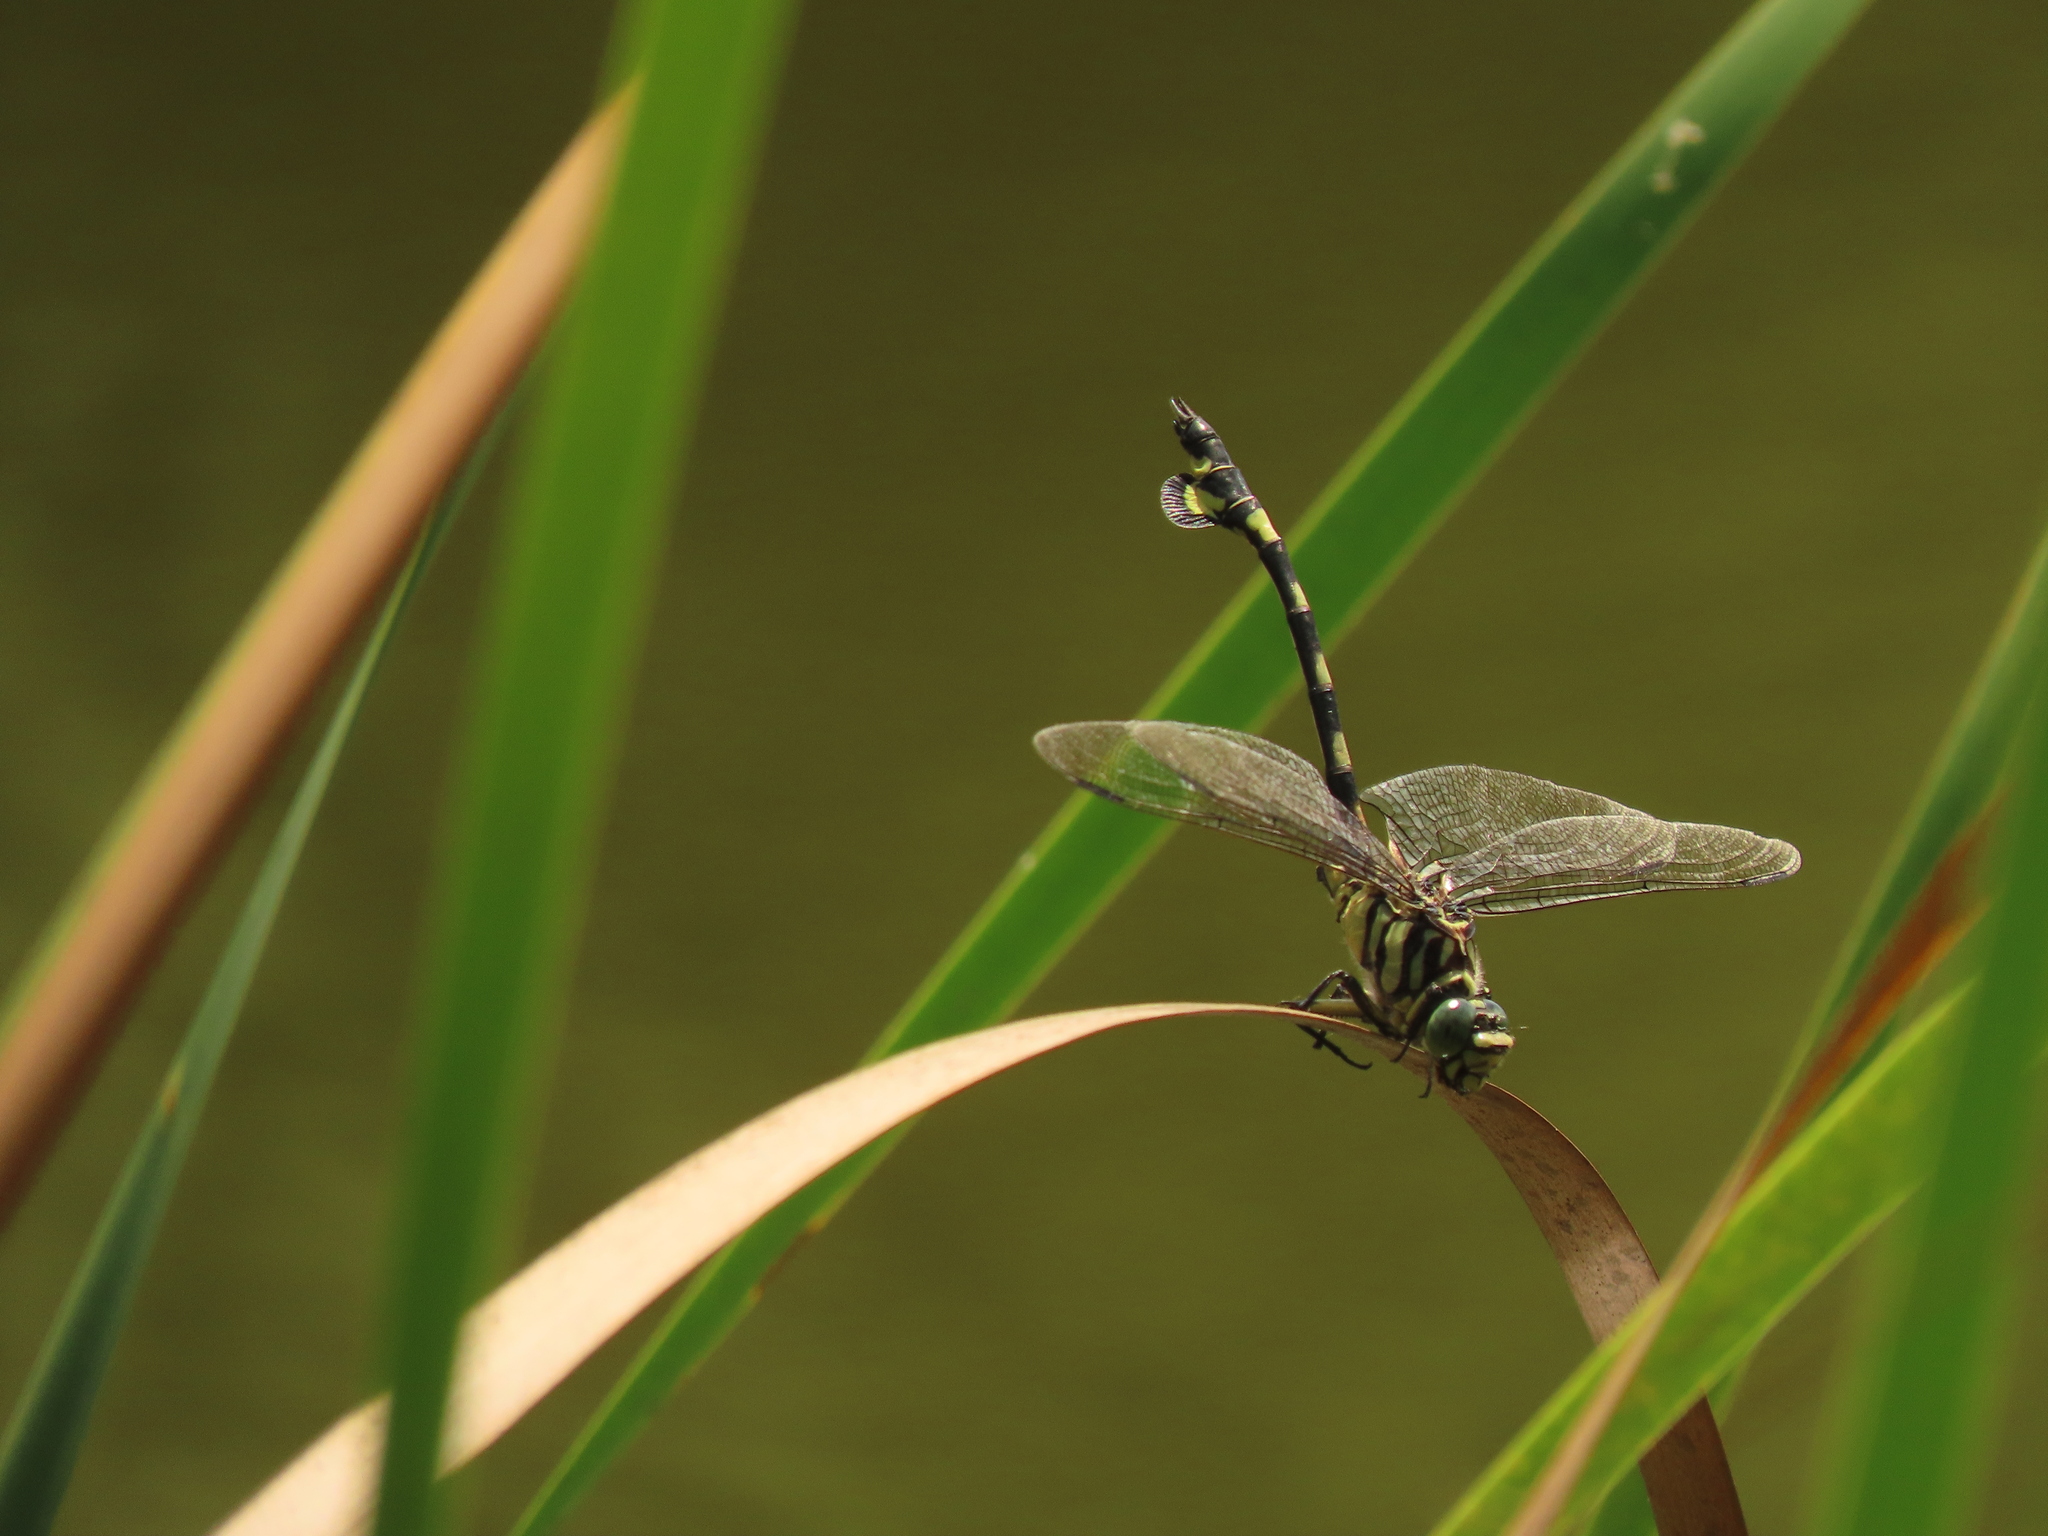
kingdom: Animalia
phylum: Arthropoda
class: Insecta
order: Odonata
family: Gomphidae
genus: Sinictinogomphus
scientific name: Sinictinogomphus clavatus
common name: Golden flangetail
